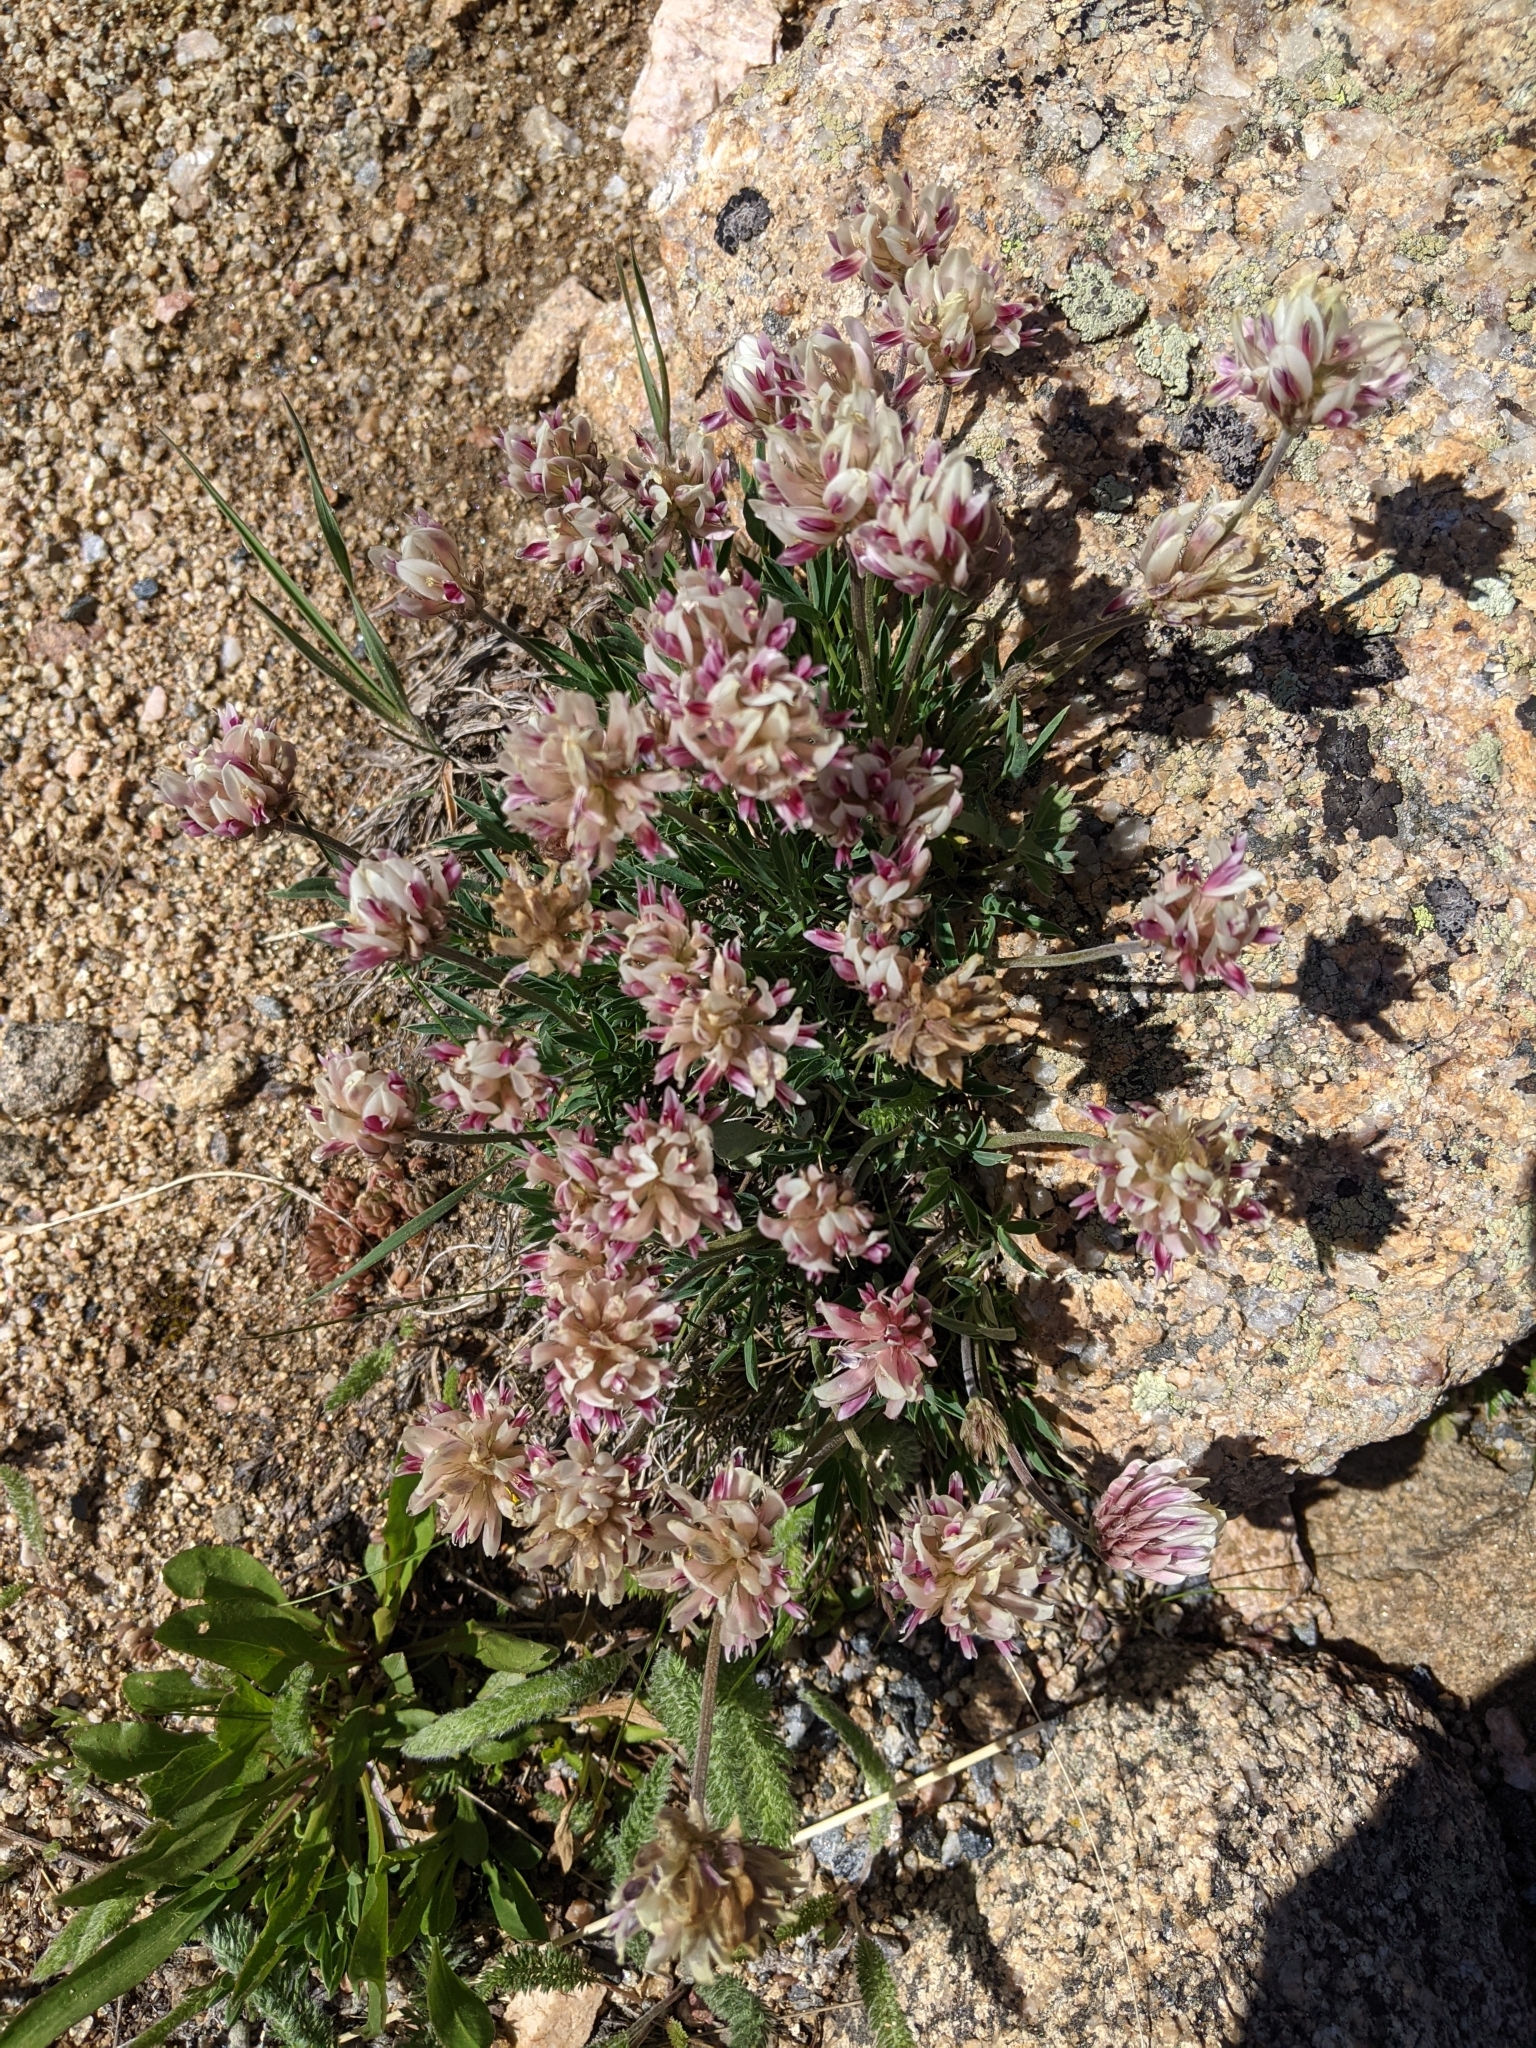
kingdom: Plantae
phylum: Tracheophyta
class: Magnoliopsida
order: Fabales
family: Fabaceae
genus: Trifolium
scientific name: Trifolium dasyphyllum
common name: Whip-root clover
